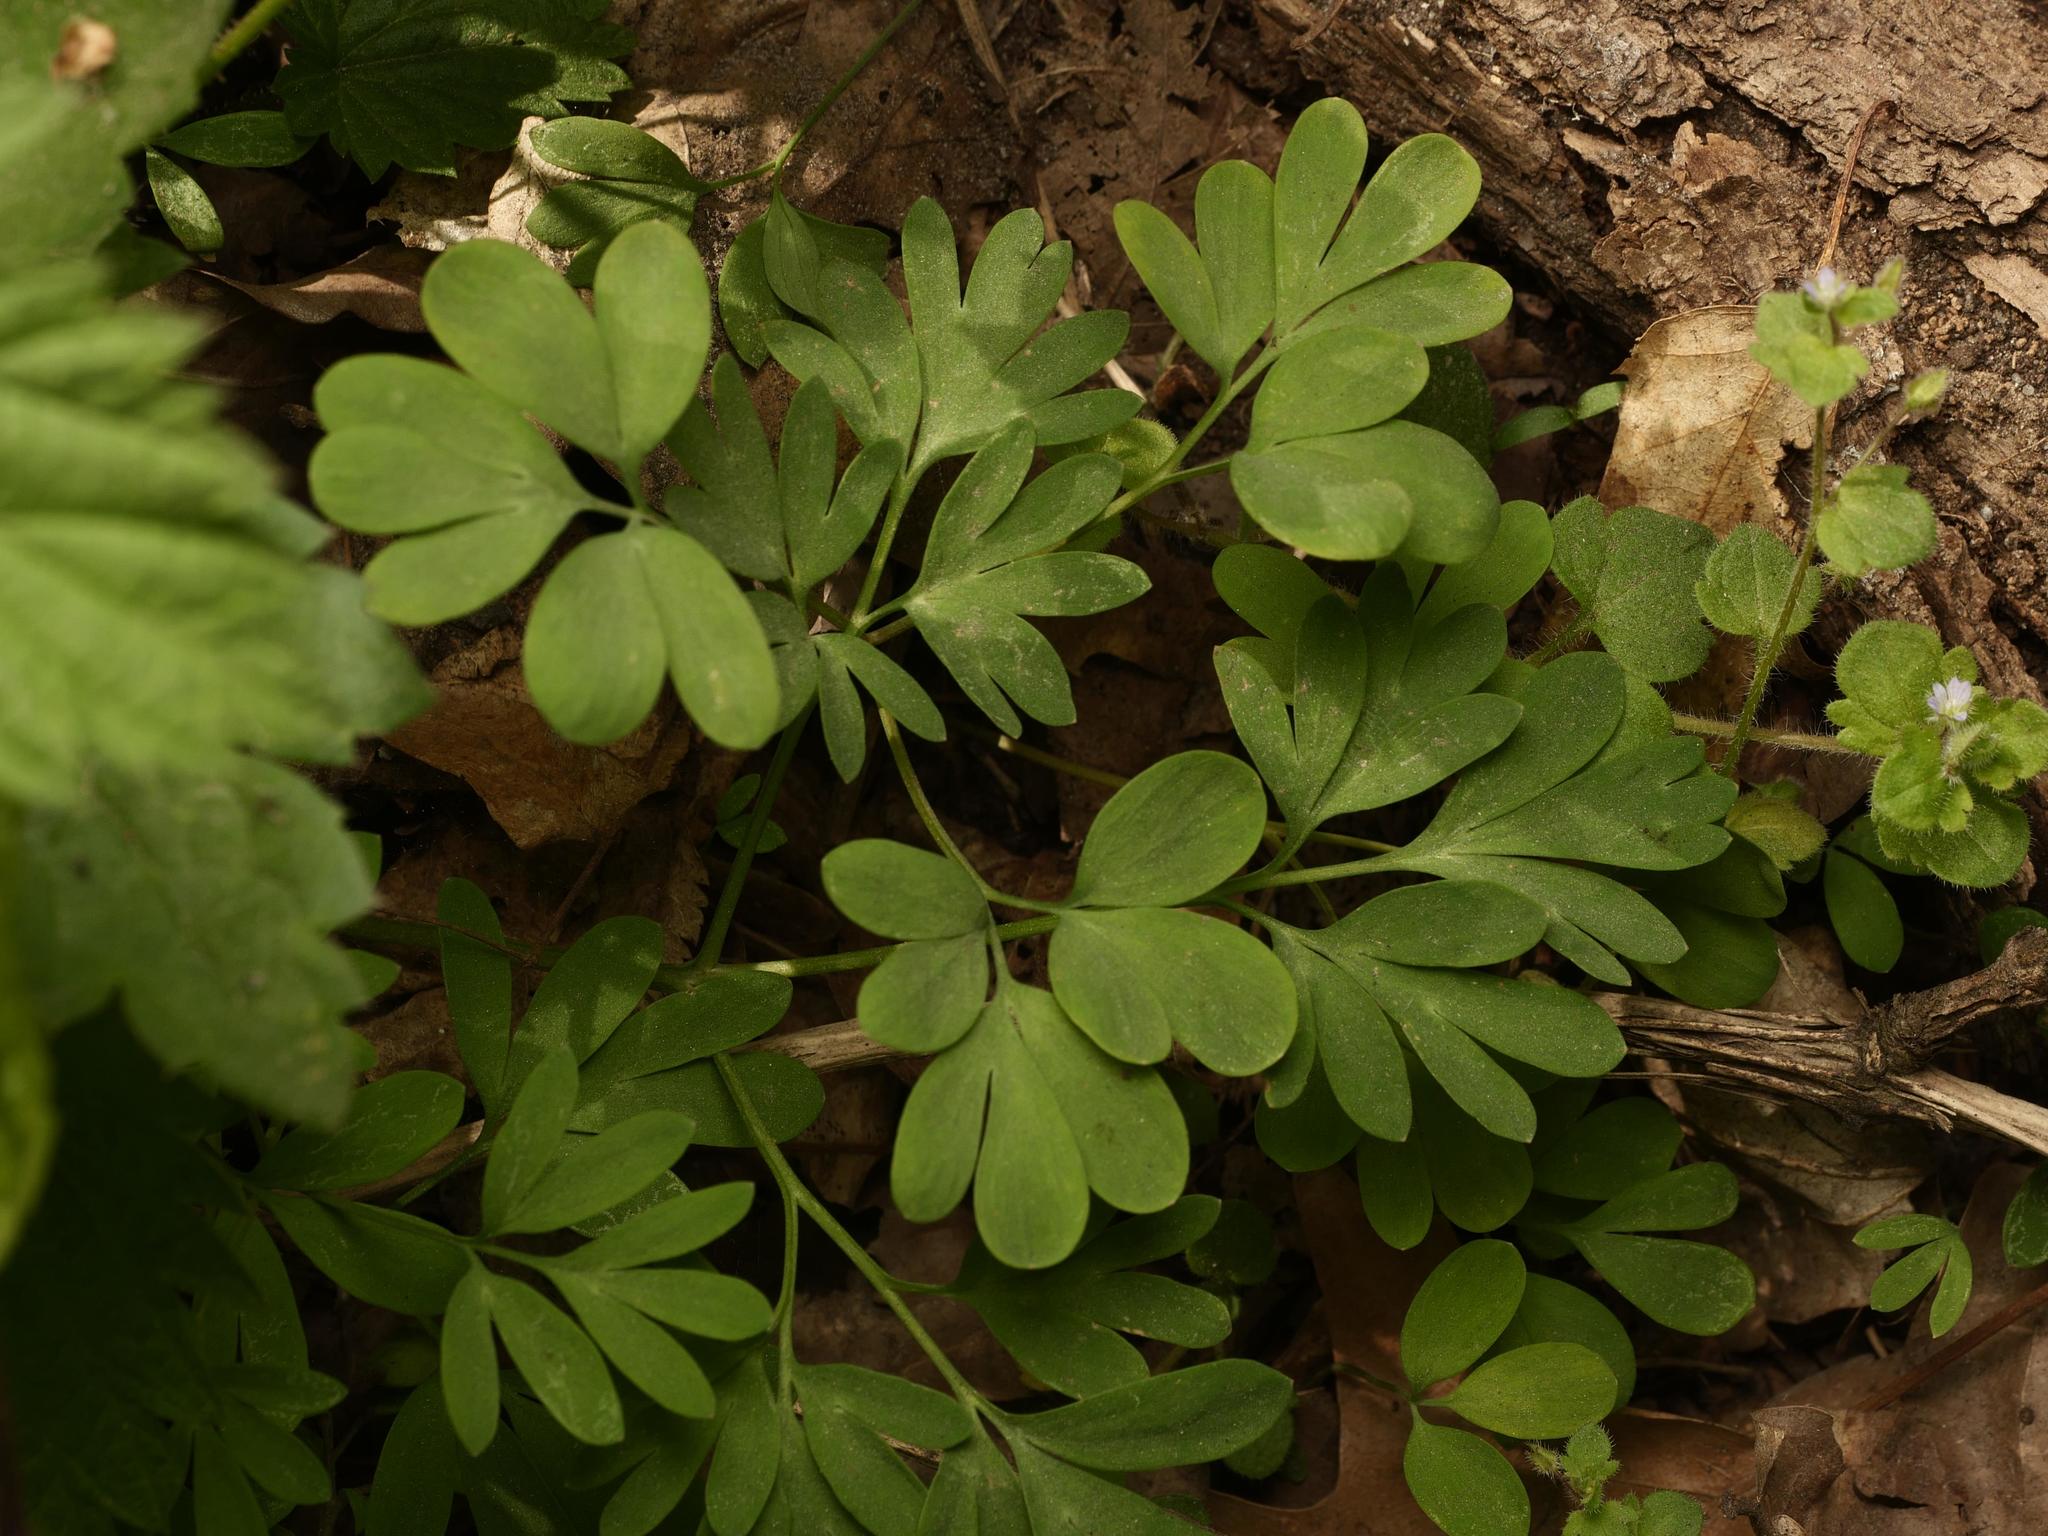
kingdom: Plantae
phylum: Tracheophyta
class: Magnoliopsida
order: Ranunculales
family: Papaveraceae
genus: Corydalis
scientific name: Corydalis solida
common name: Bird-in-a-bush
